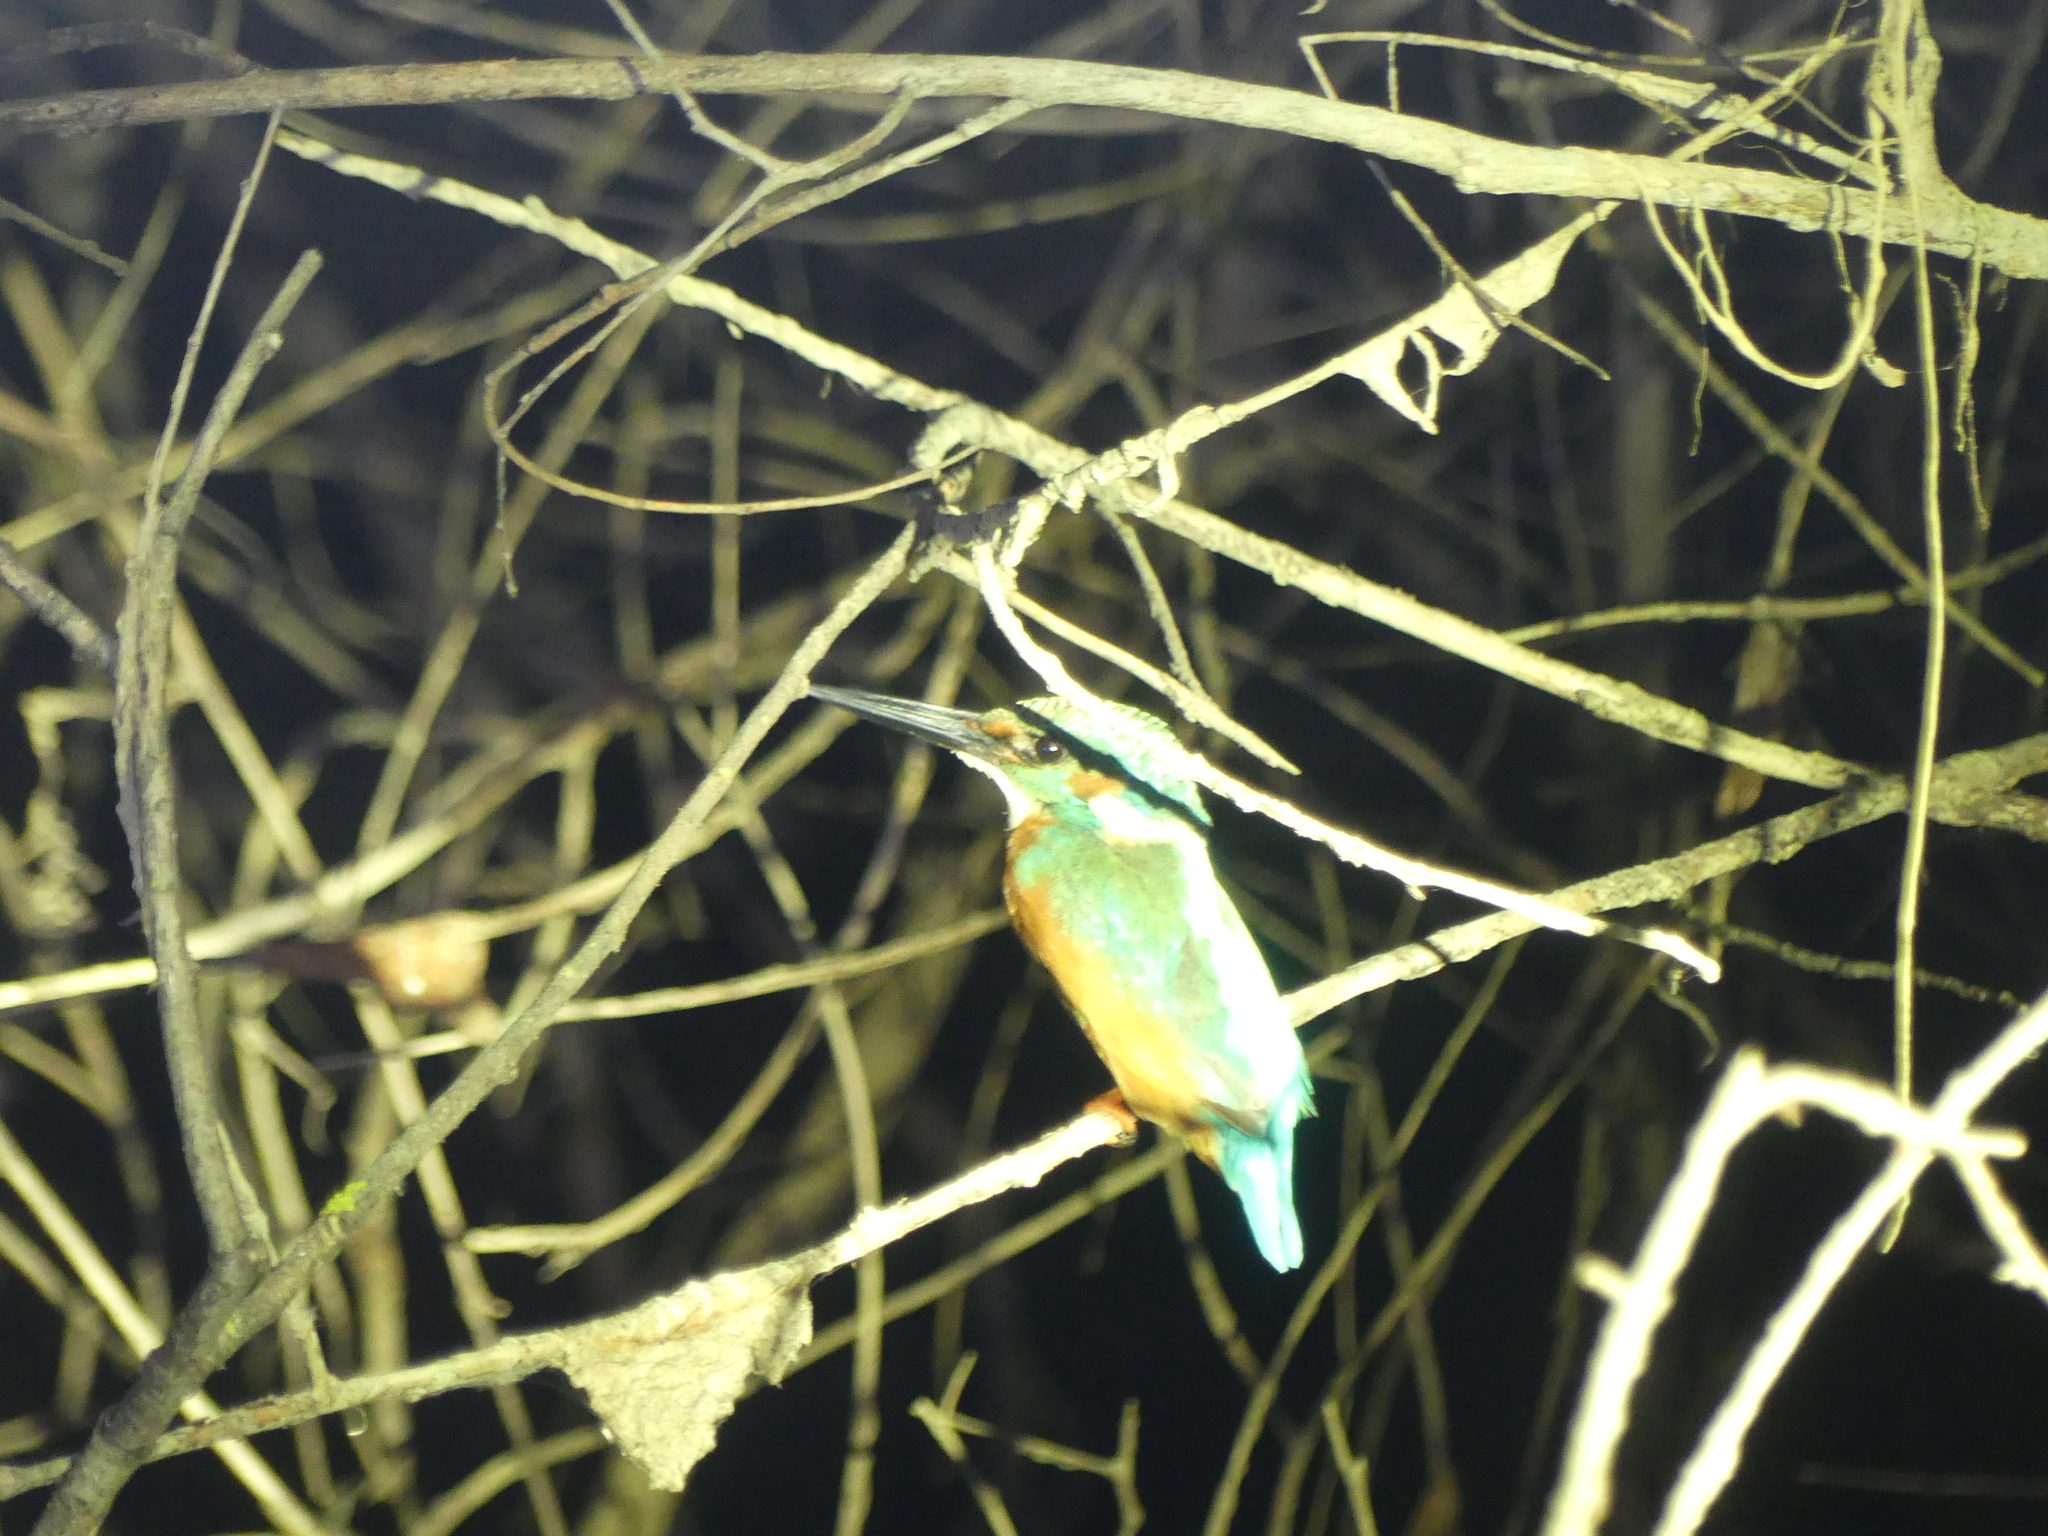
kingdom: Animalia
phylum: Chordata
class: Aves
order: Coraciiformes
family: Alcedinidae
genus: Alcedo
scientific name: Alcedo atthis
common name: Common kingfisher
